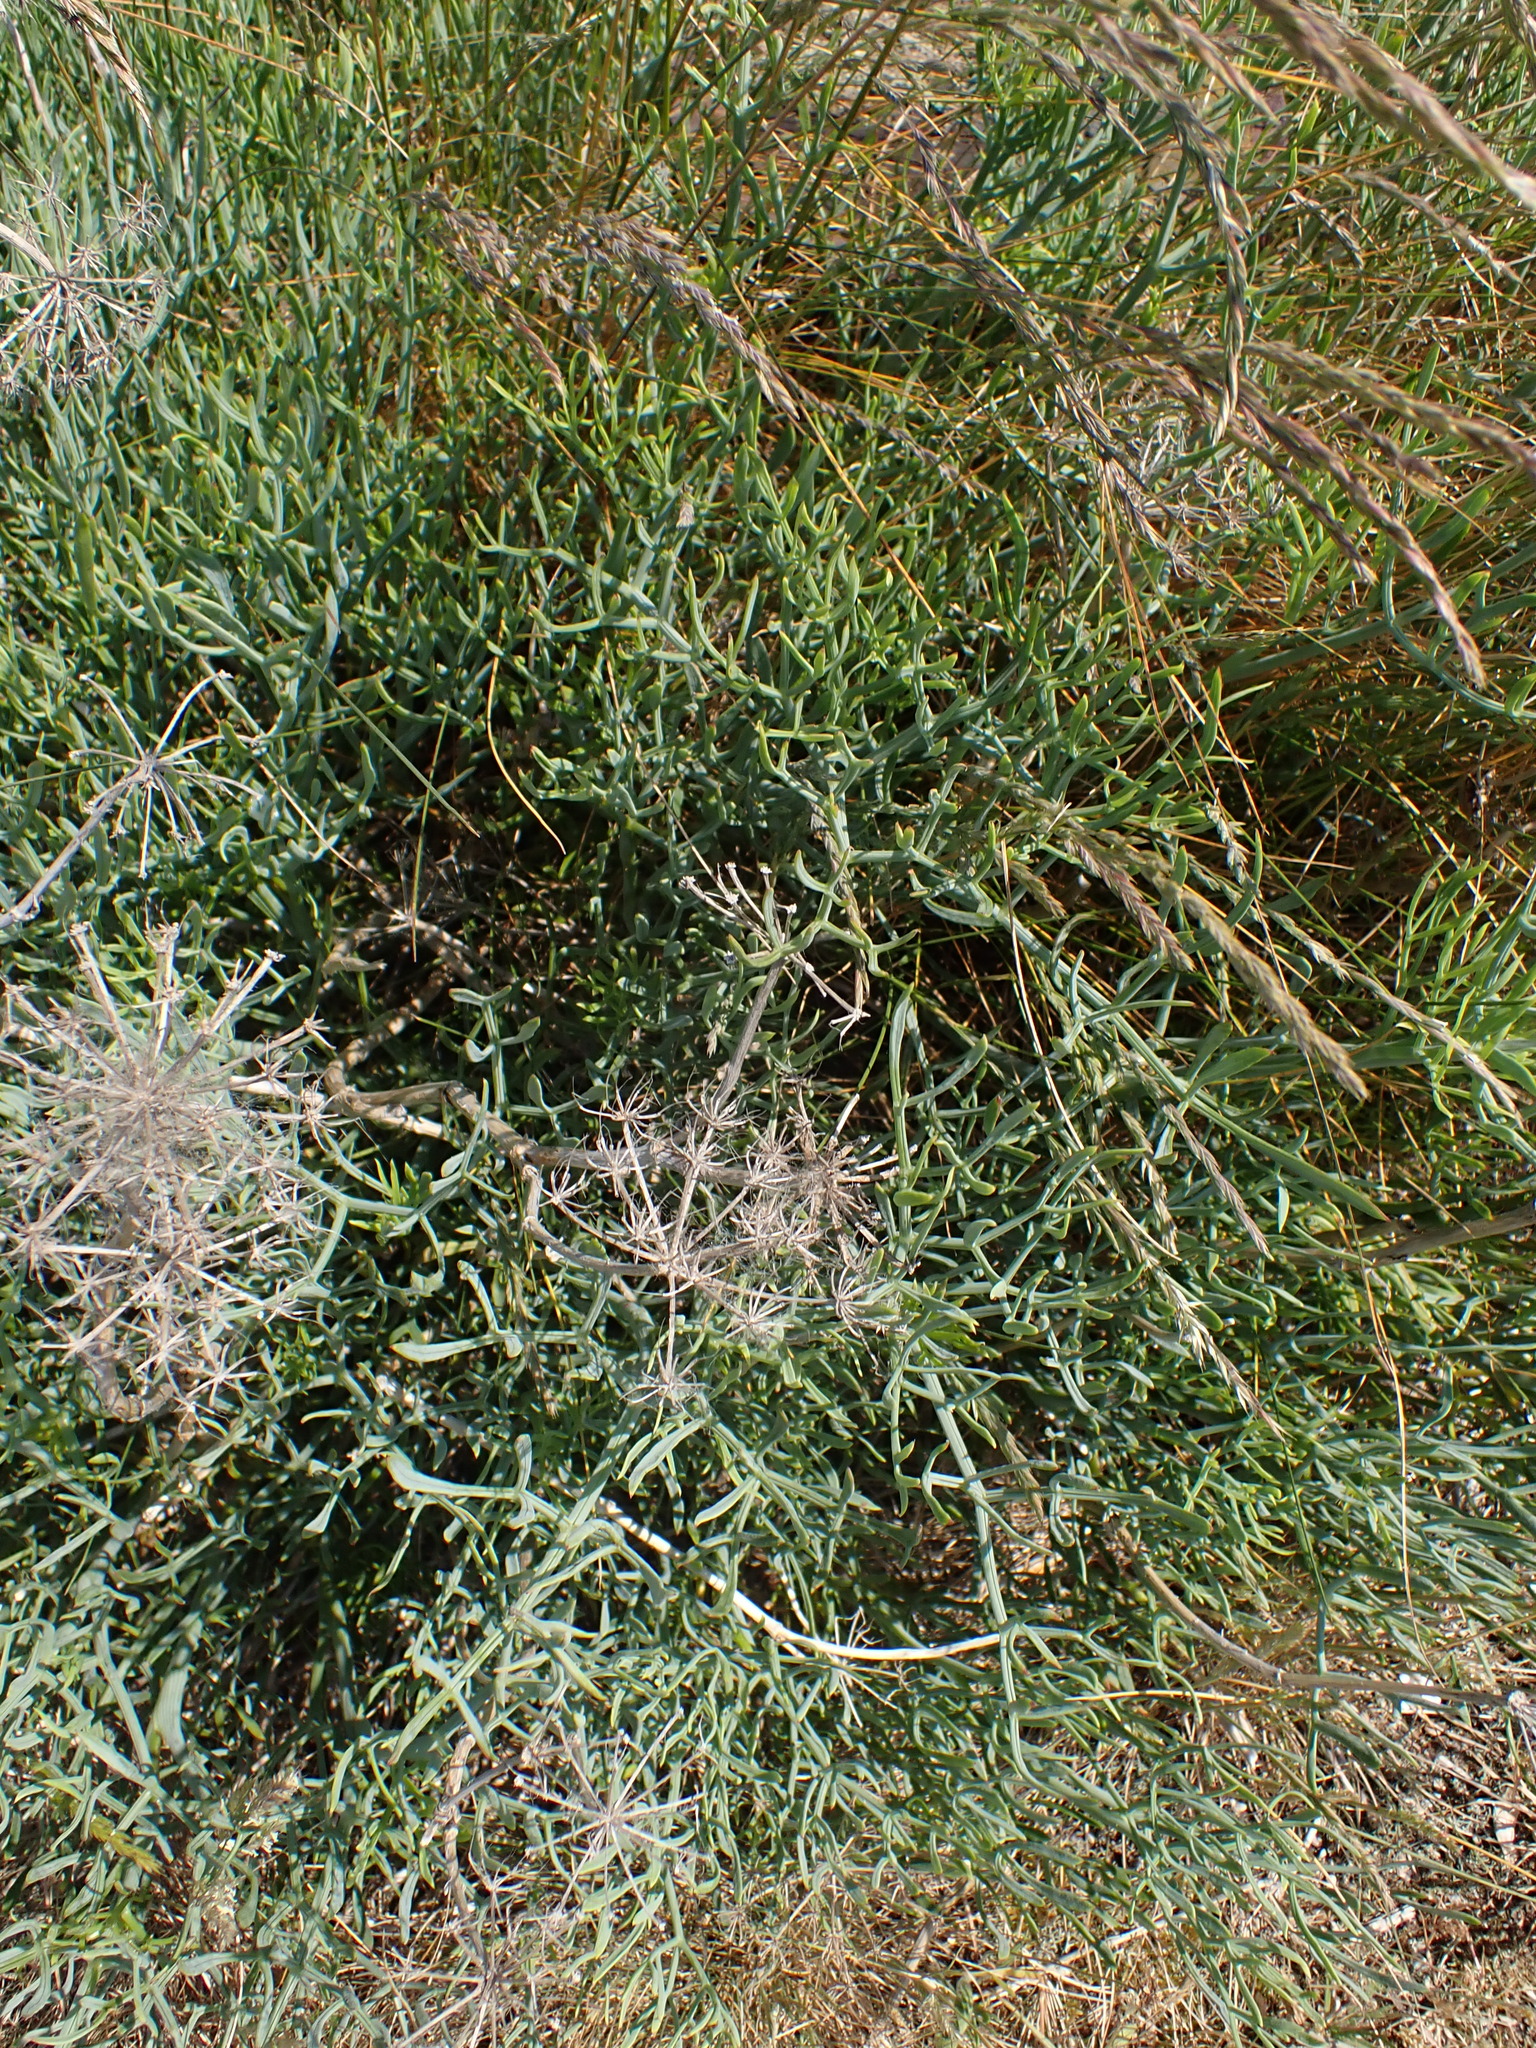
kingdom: Plantae
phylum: Tracheophyta
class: Magnoliopsida
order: Apiales
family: Apiaceae
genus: Crithmum
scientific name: Crithmum maritimum
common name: Rock samphire
